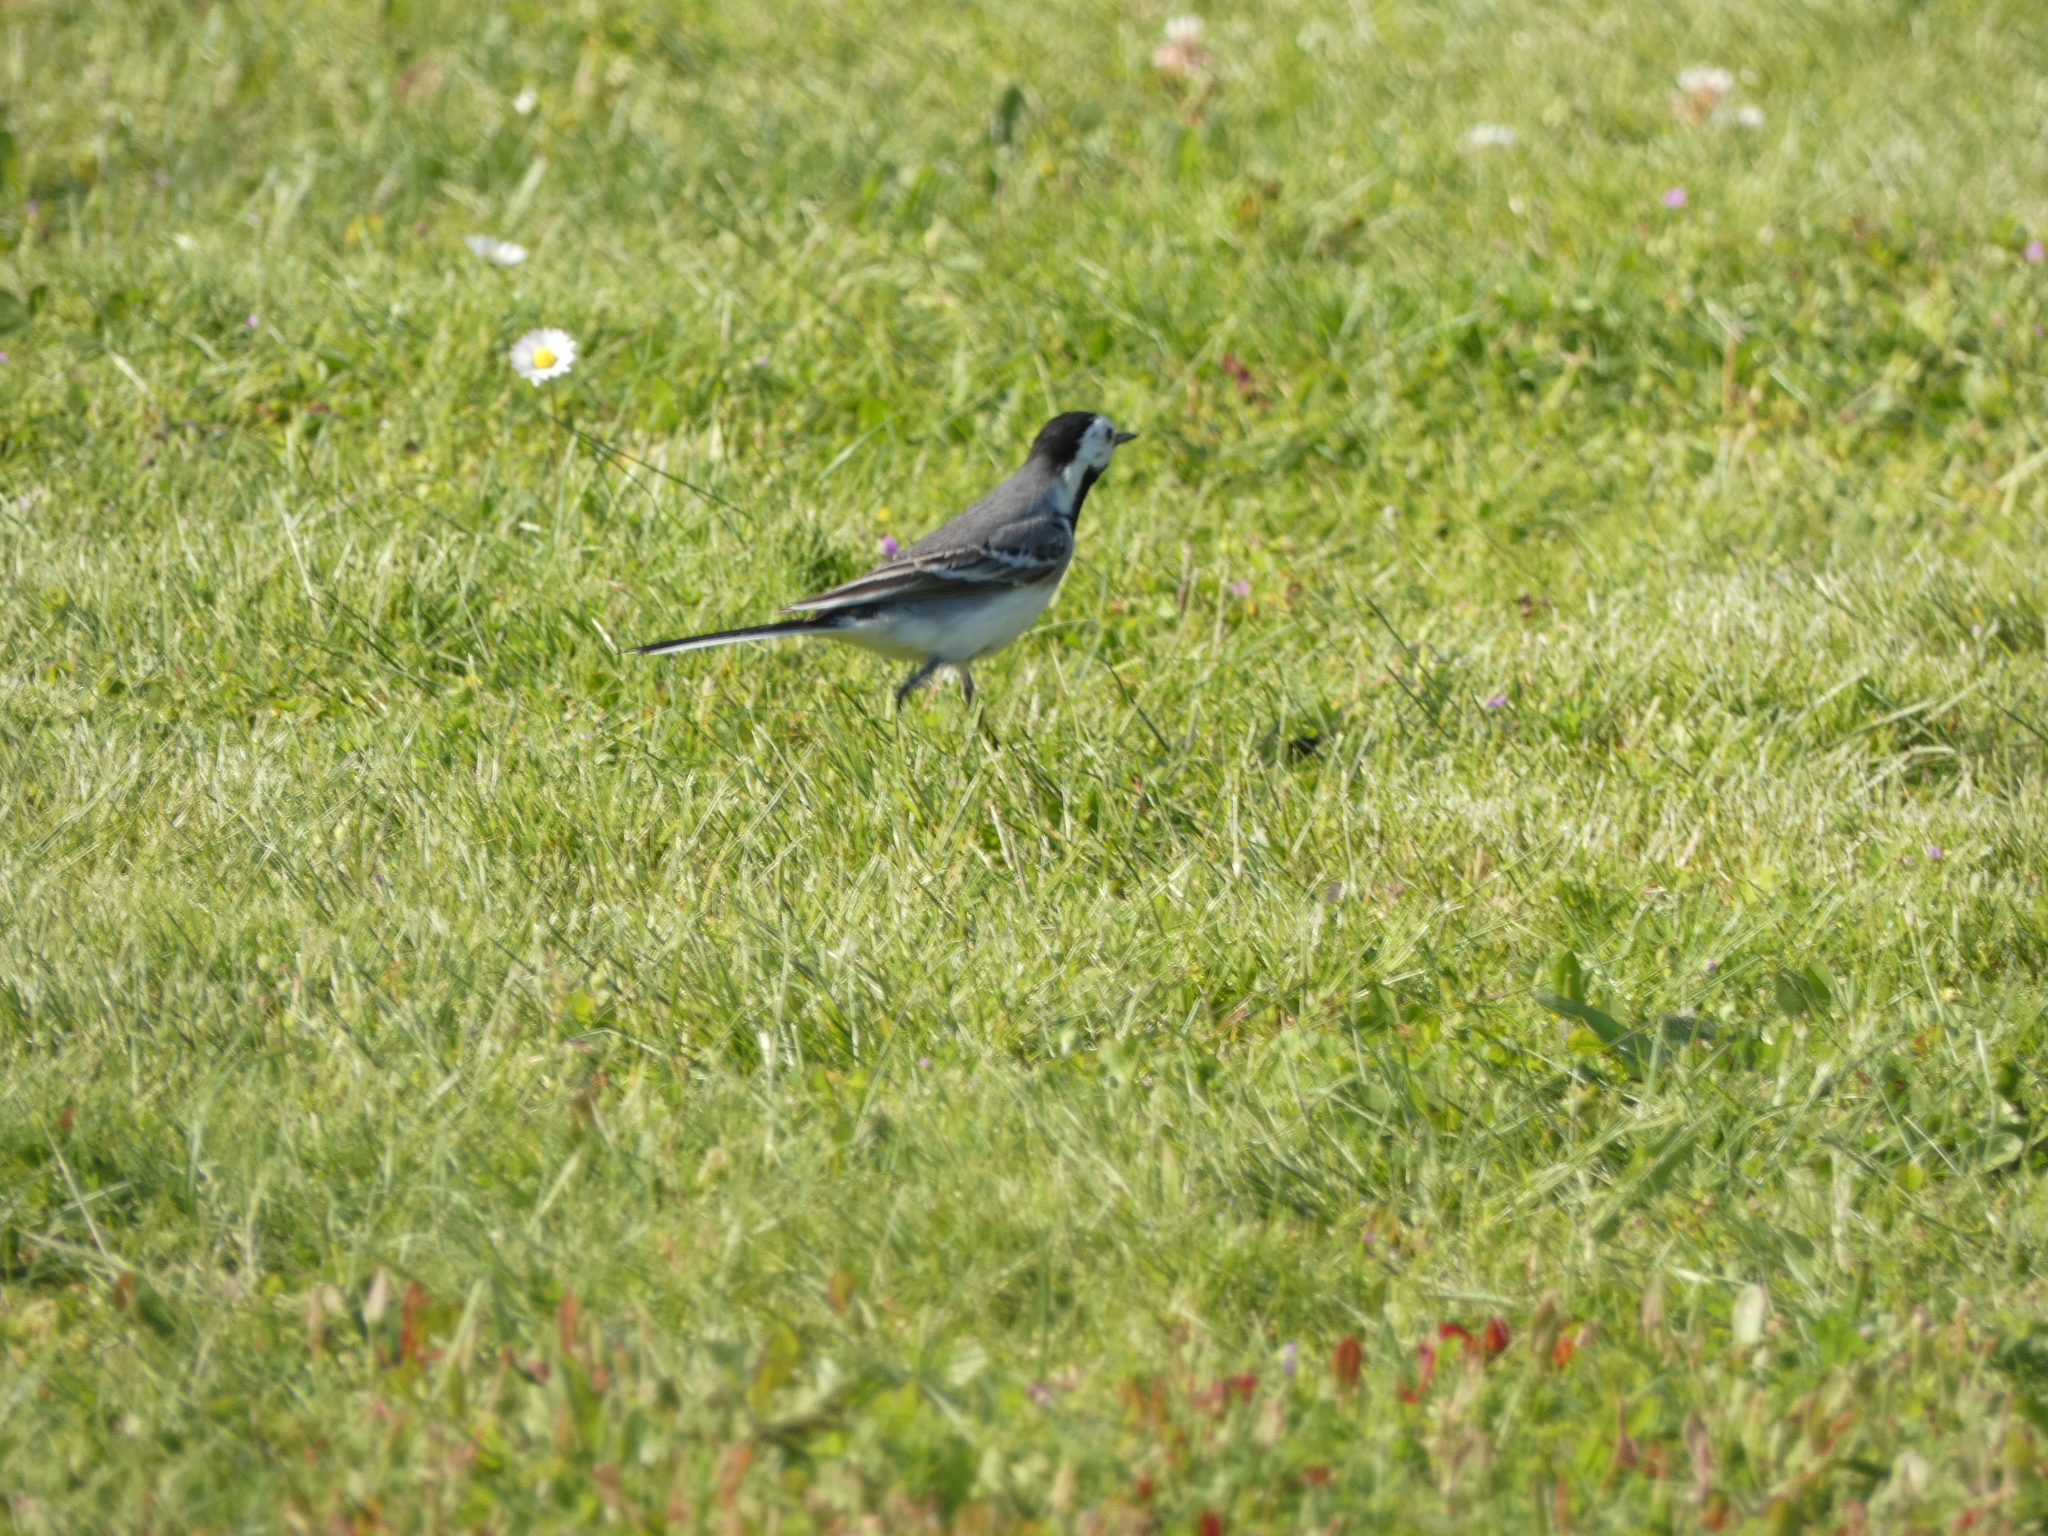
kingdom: Animalia
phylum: Chordata
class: Aves
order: Passeriformes
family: Motacillidae
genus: Motacilla
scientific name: Motacilla alba
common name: White wagtail
